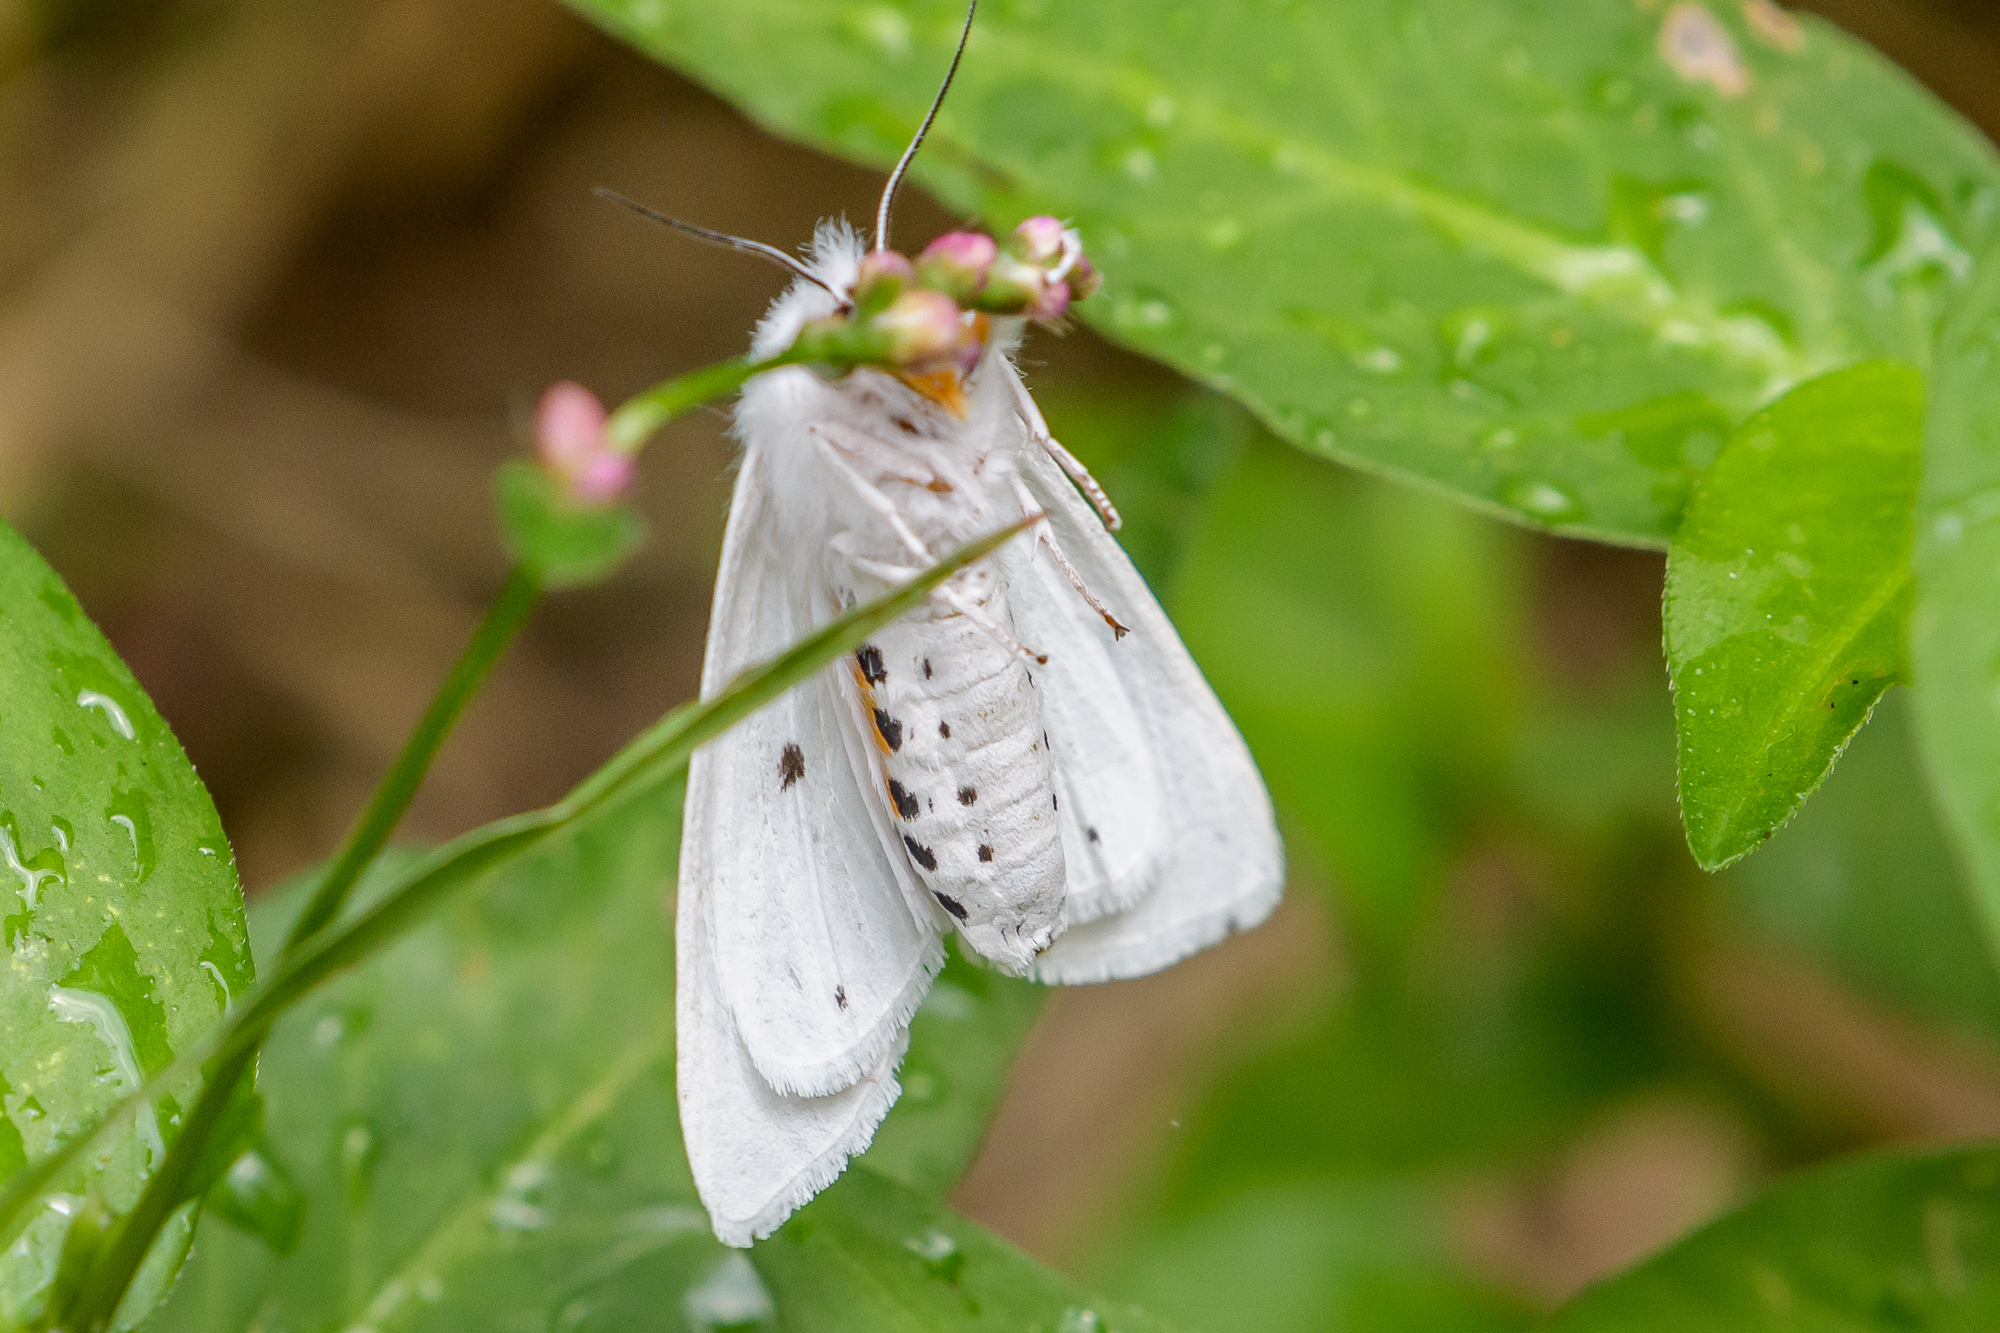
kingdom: Animalia
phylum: Arthropoda
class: Insecta
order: Lepidoptera
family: Erebidae
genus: Spilosoma
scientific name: Spilosoma virginica
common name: Virginia tiger moth
